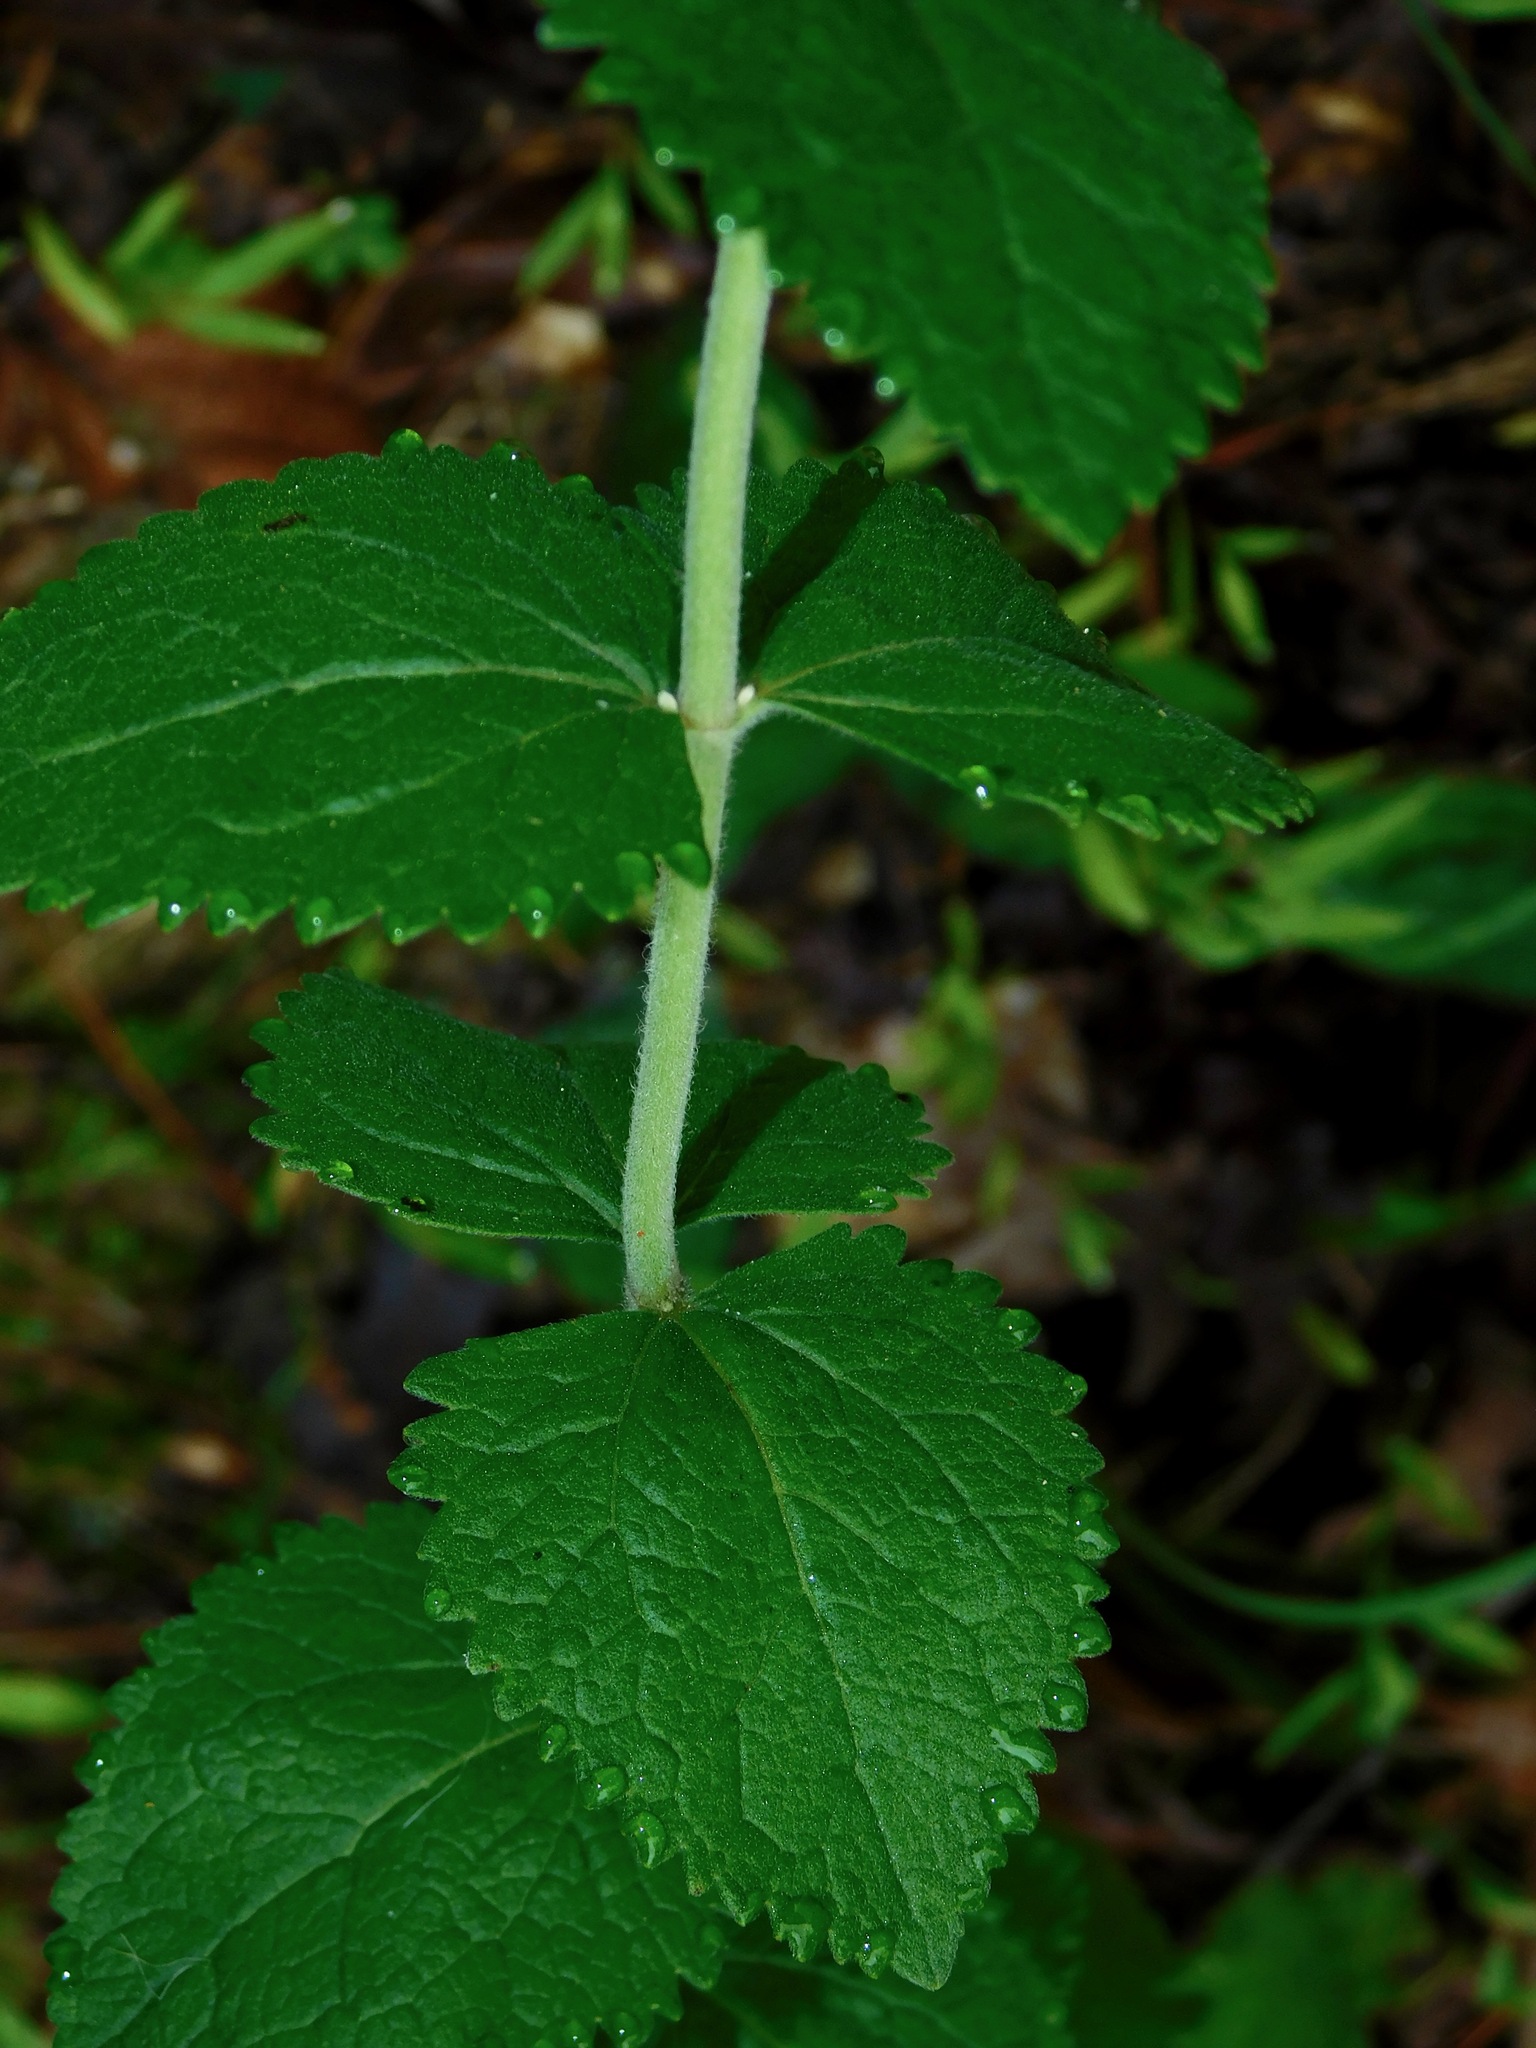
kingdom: Plantae
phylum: Tracheophyta
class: Magnoliopsida
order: Asterales
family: Asteraceae
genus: Eupatorium
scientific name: Eupatorium rotundifolium
